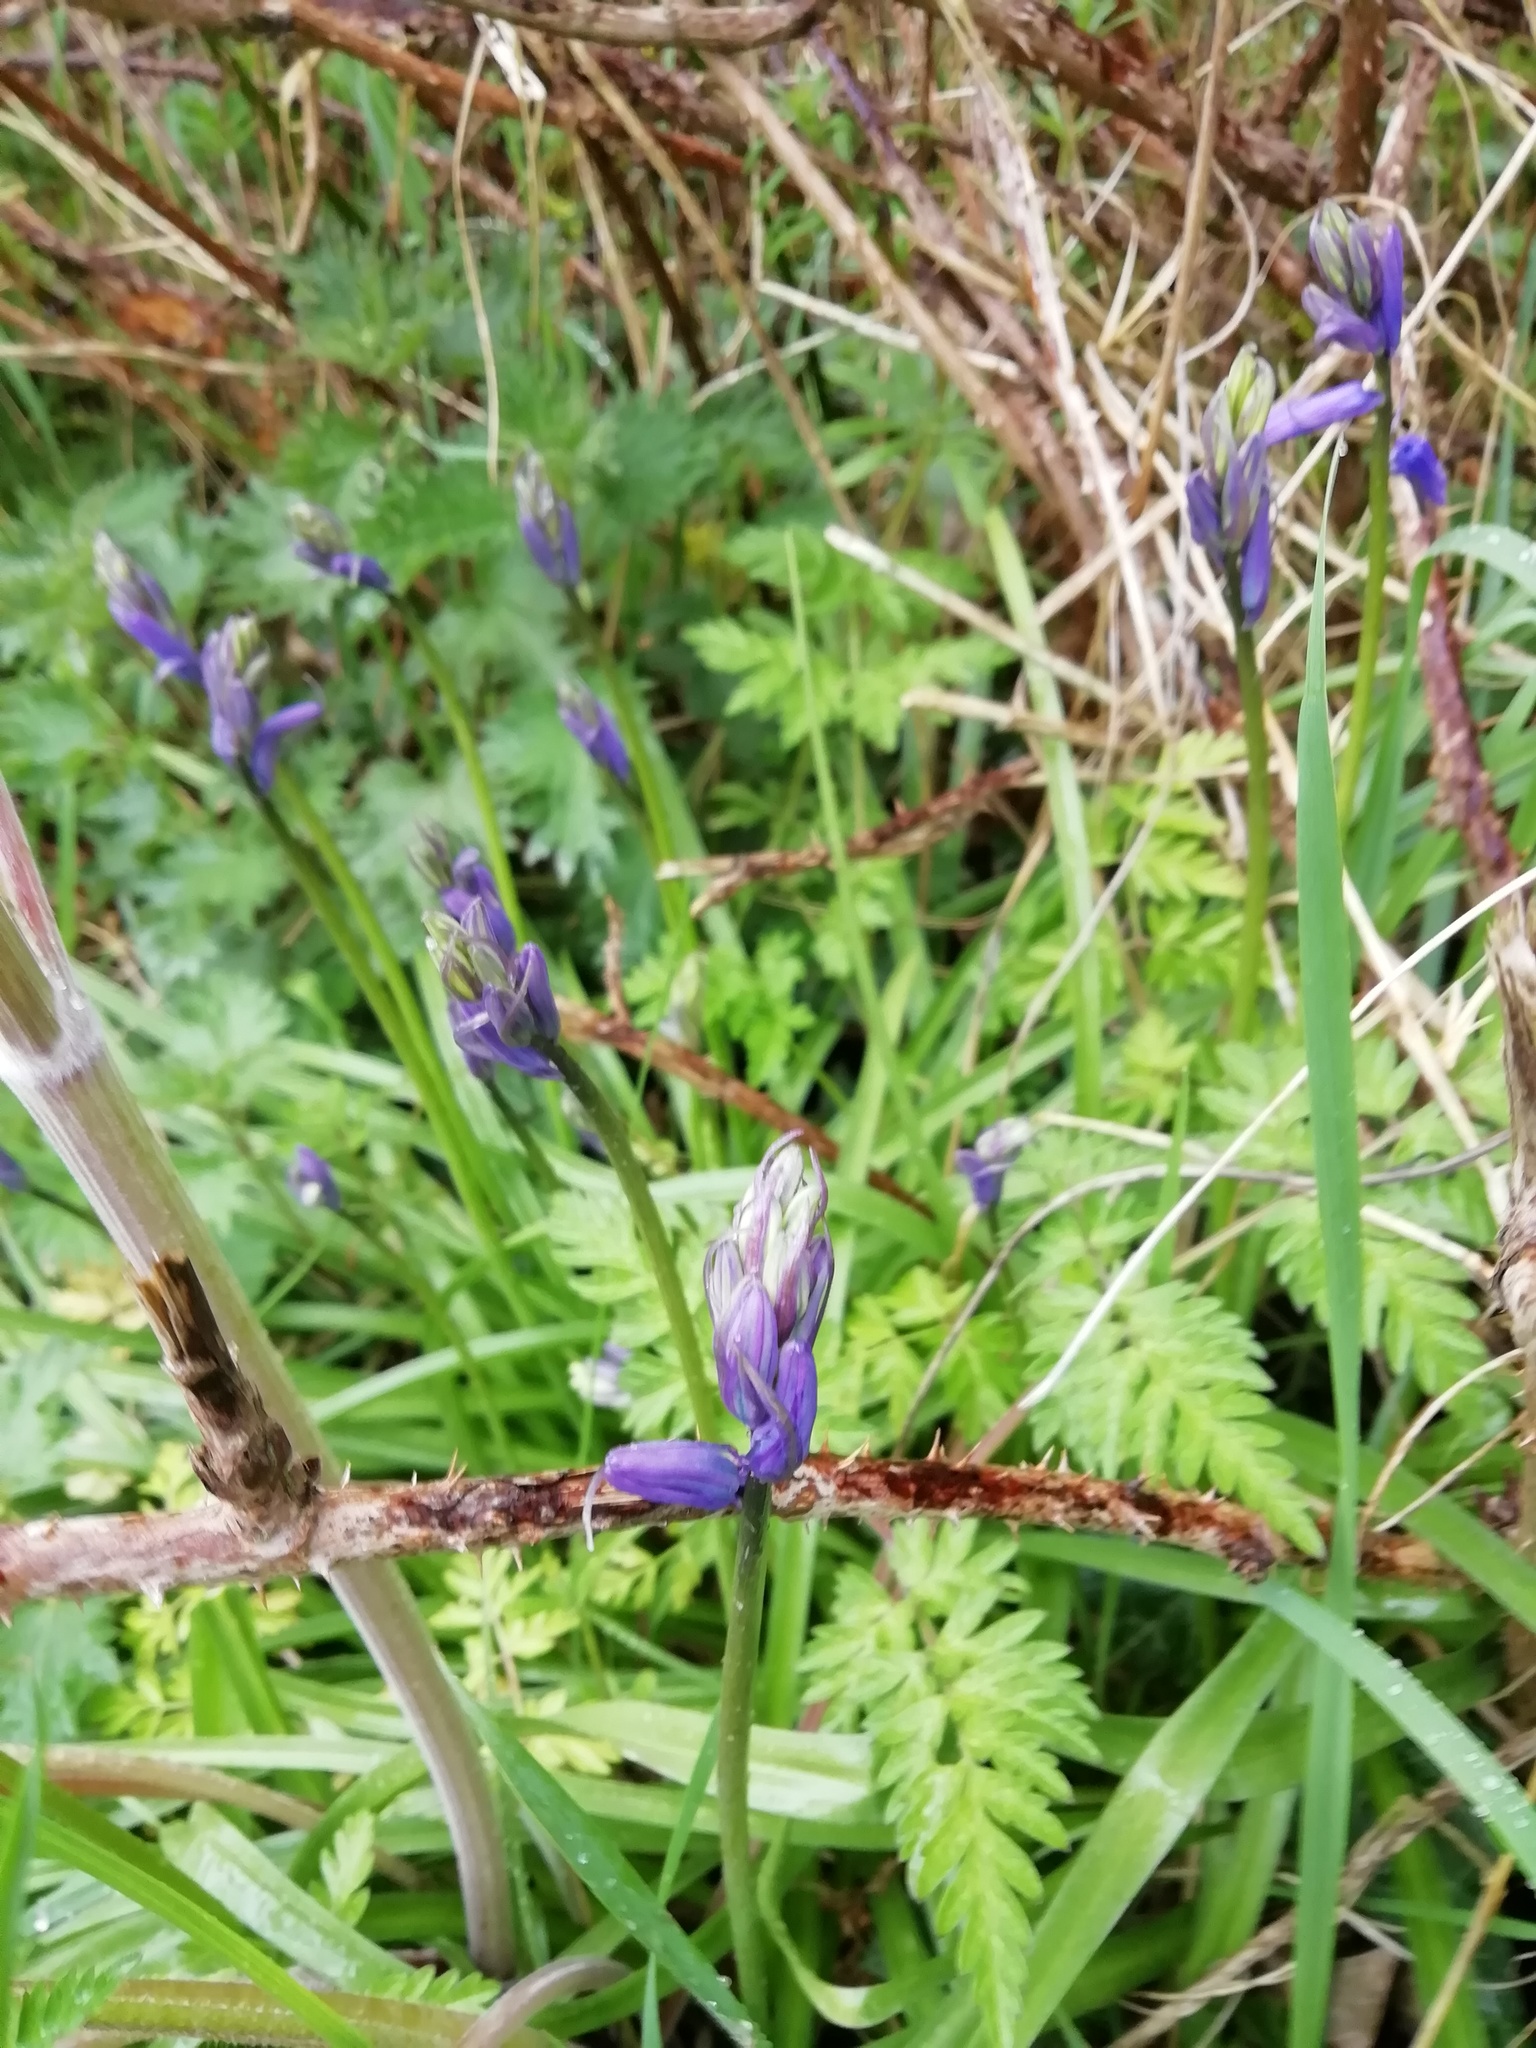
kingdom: Plantae
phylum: Tracheophyta
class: Liliopsida
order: Asparagales
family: Asparagaceae
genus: Hyacinthoides
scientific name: Hyacinthoides non-scripta
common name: Bluebell
